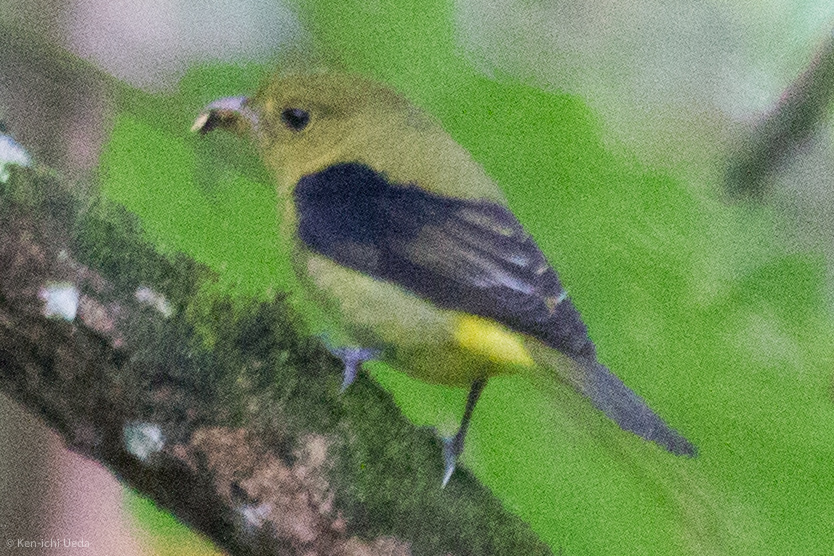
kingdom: Animalia
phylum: Chordata
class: Aves
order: Passeriformes
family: Cardinalidae
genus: Piranga
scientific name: Piranga olivacea
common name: Scarlet tanager
